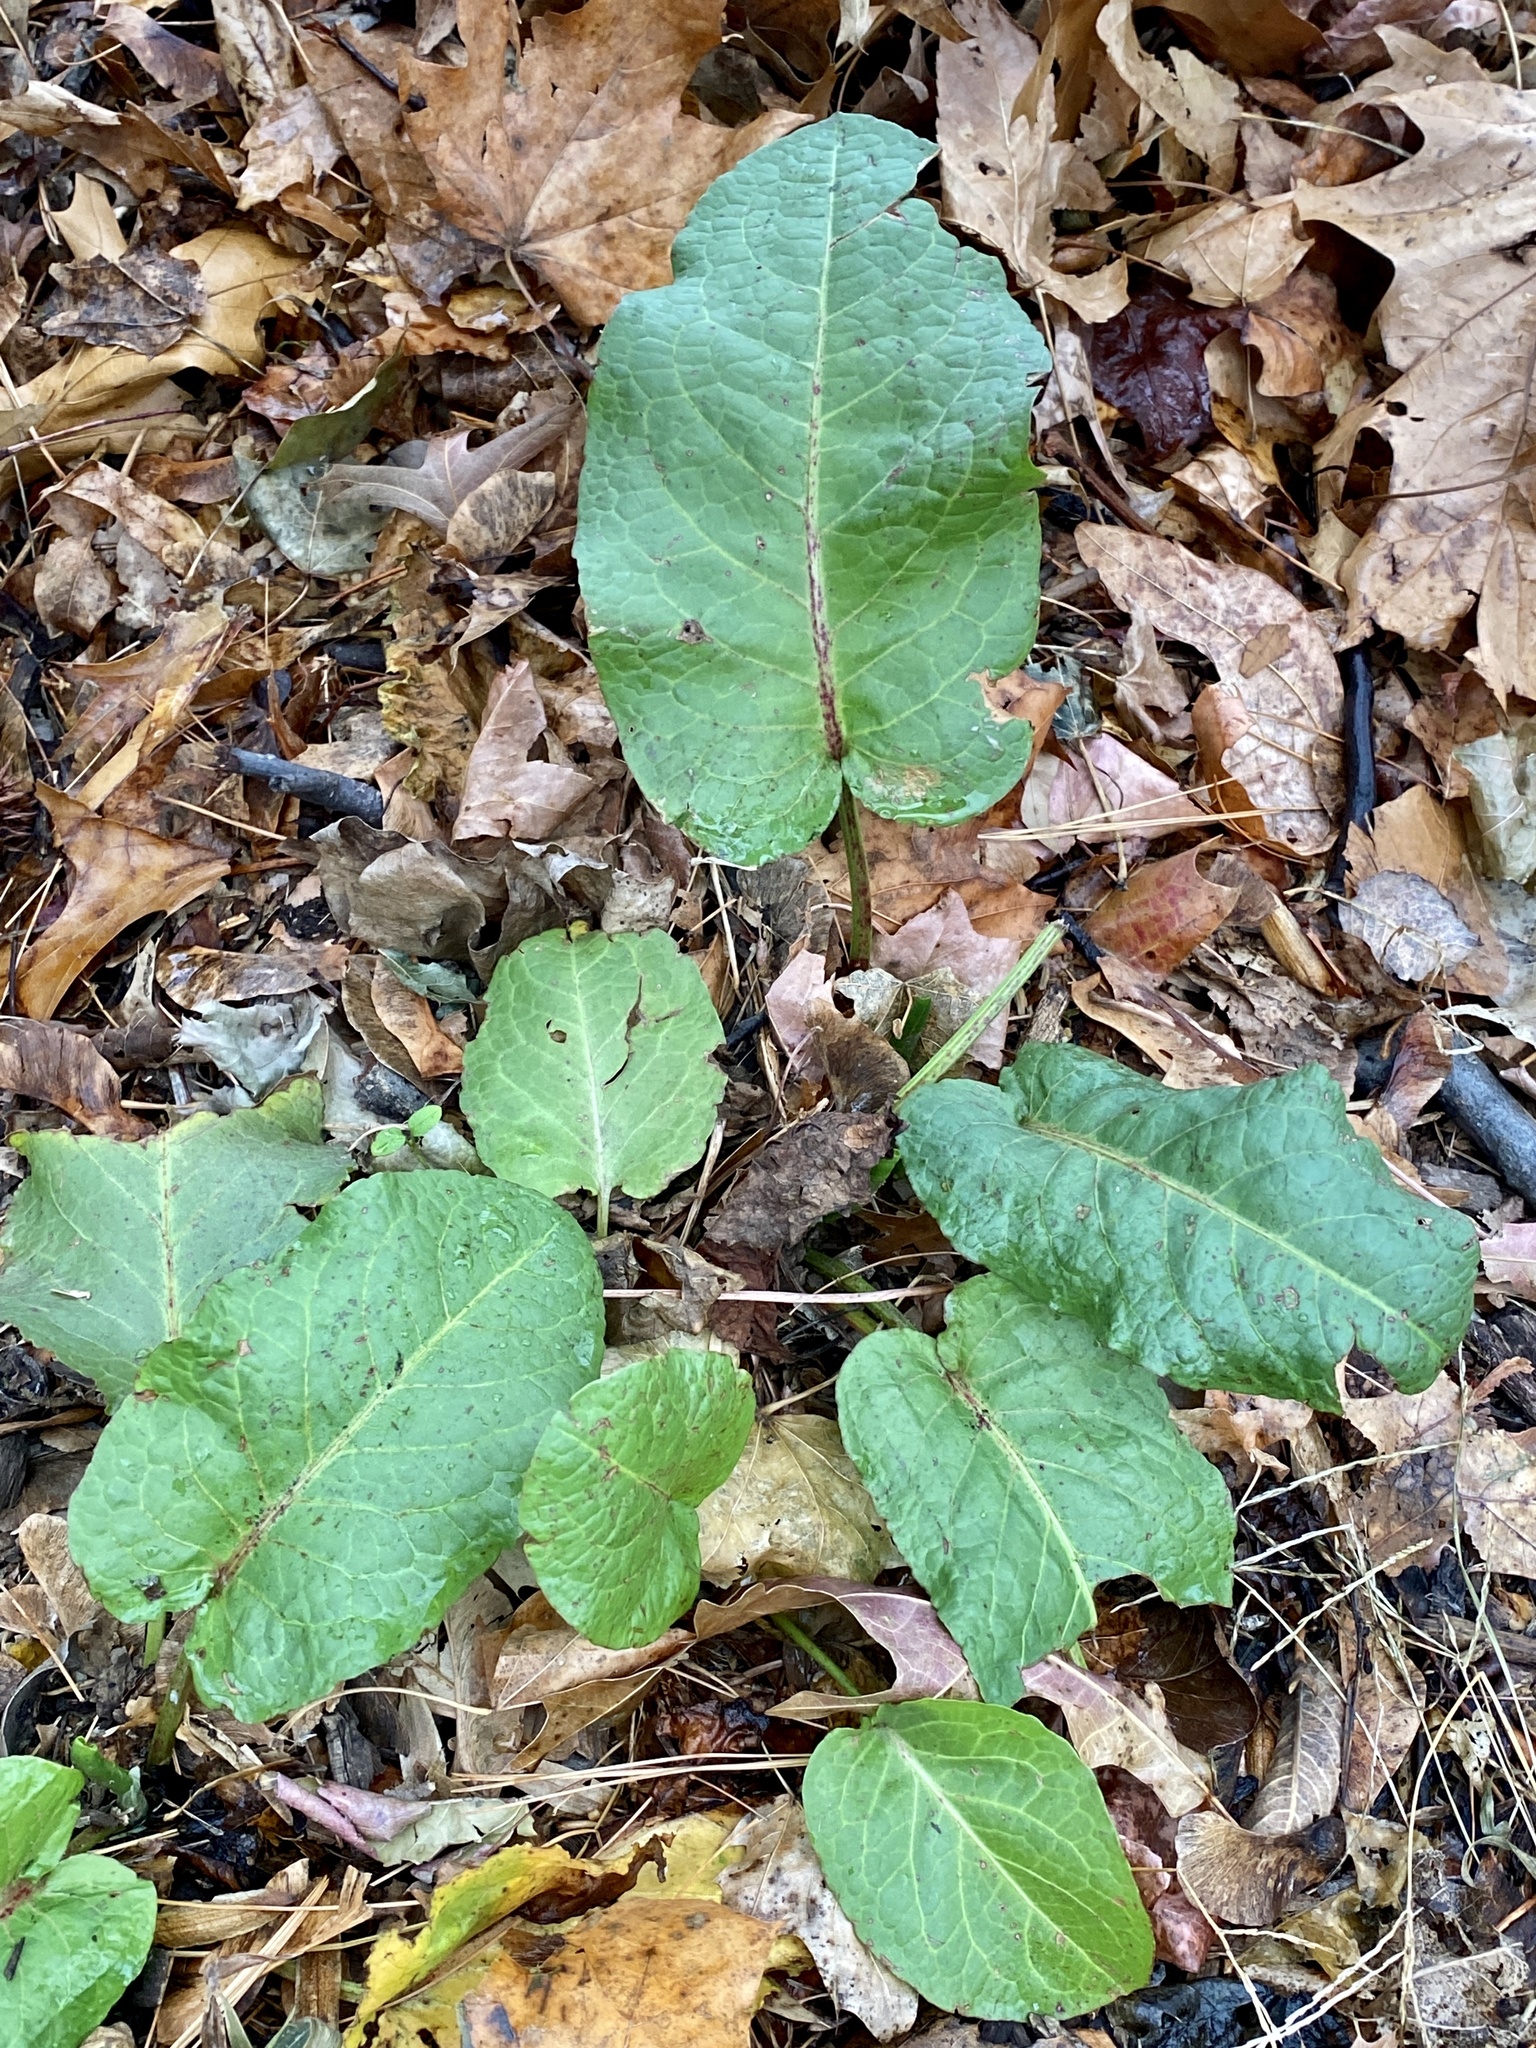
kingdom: Plantae
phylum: Tracheophyta
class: Magnoliopsida
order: Caryophyllales
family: Polygonaceae
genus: Rumex
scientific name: Rumex obtusifolius
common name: Bitter dock
